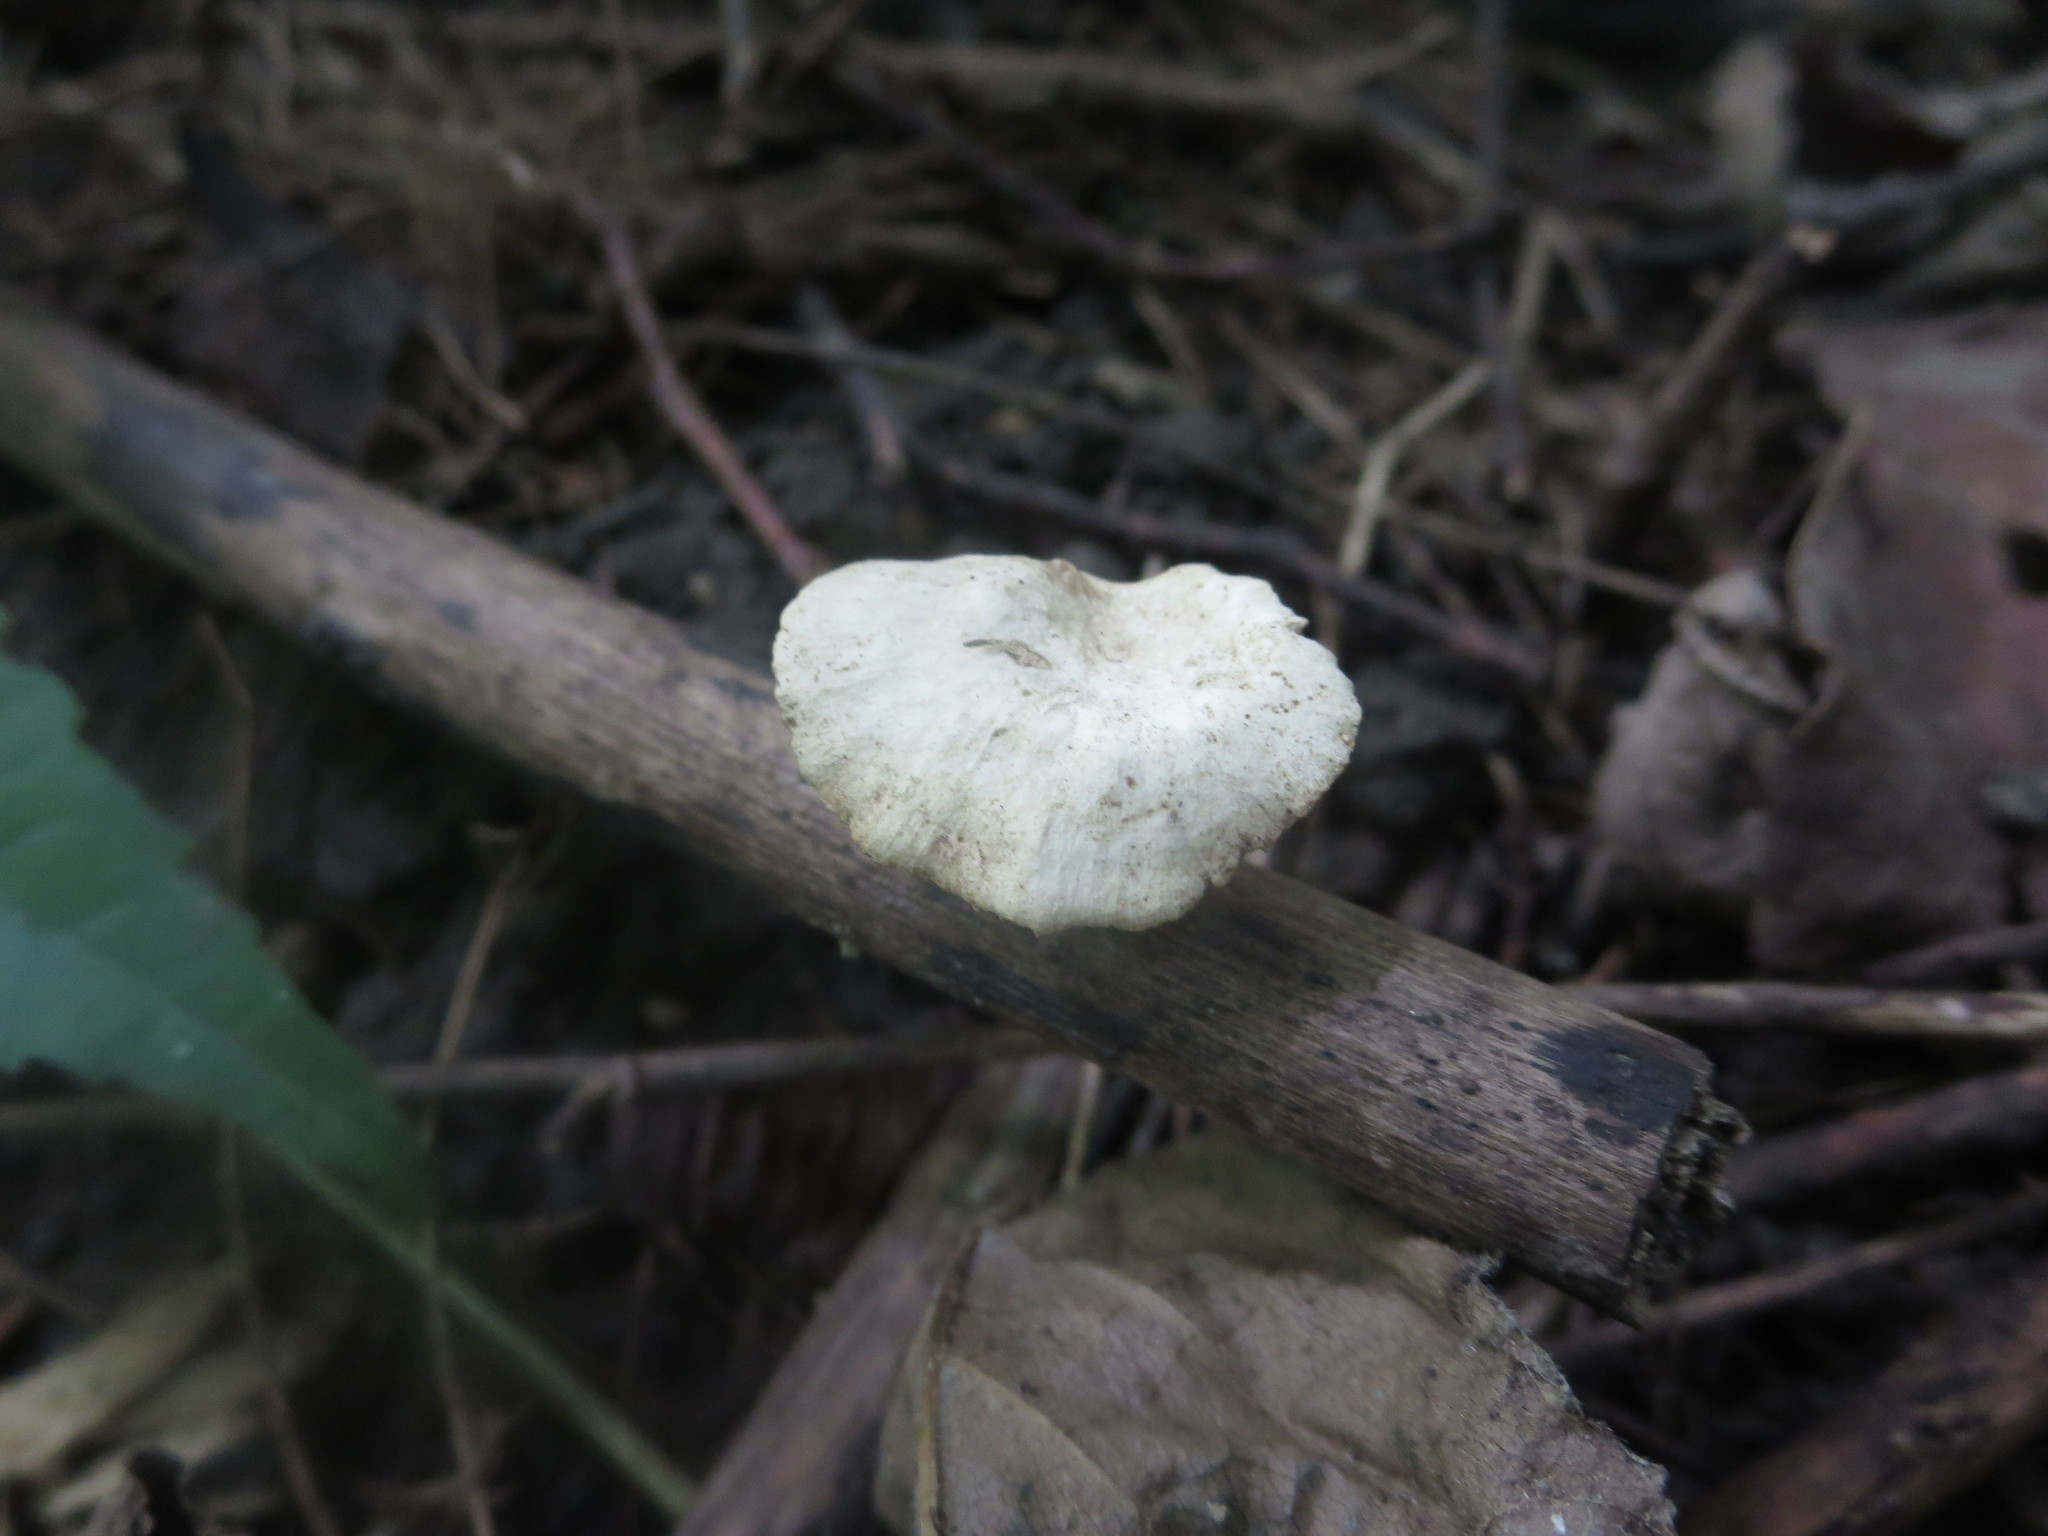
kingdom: Fungi
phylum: Basidiomycota
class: Agaricomycetes
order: Polyporales
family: Polyporaceae
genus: Cerioporus
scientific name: Cerioporus leptocephalus
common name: Blackfoot polypore
